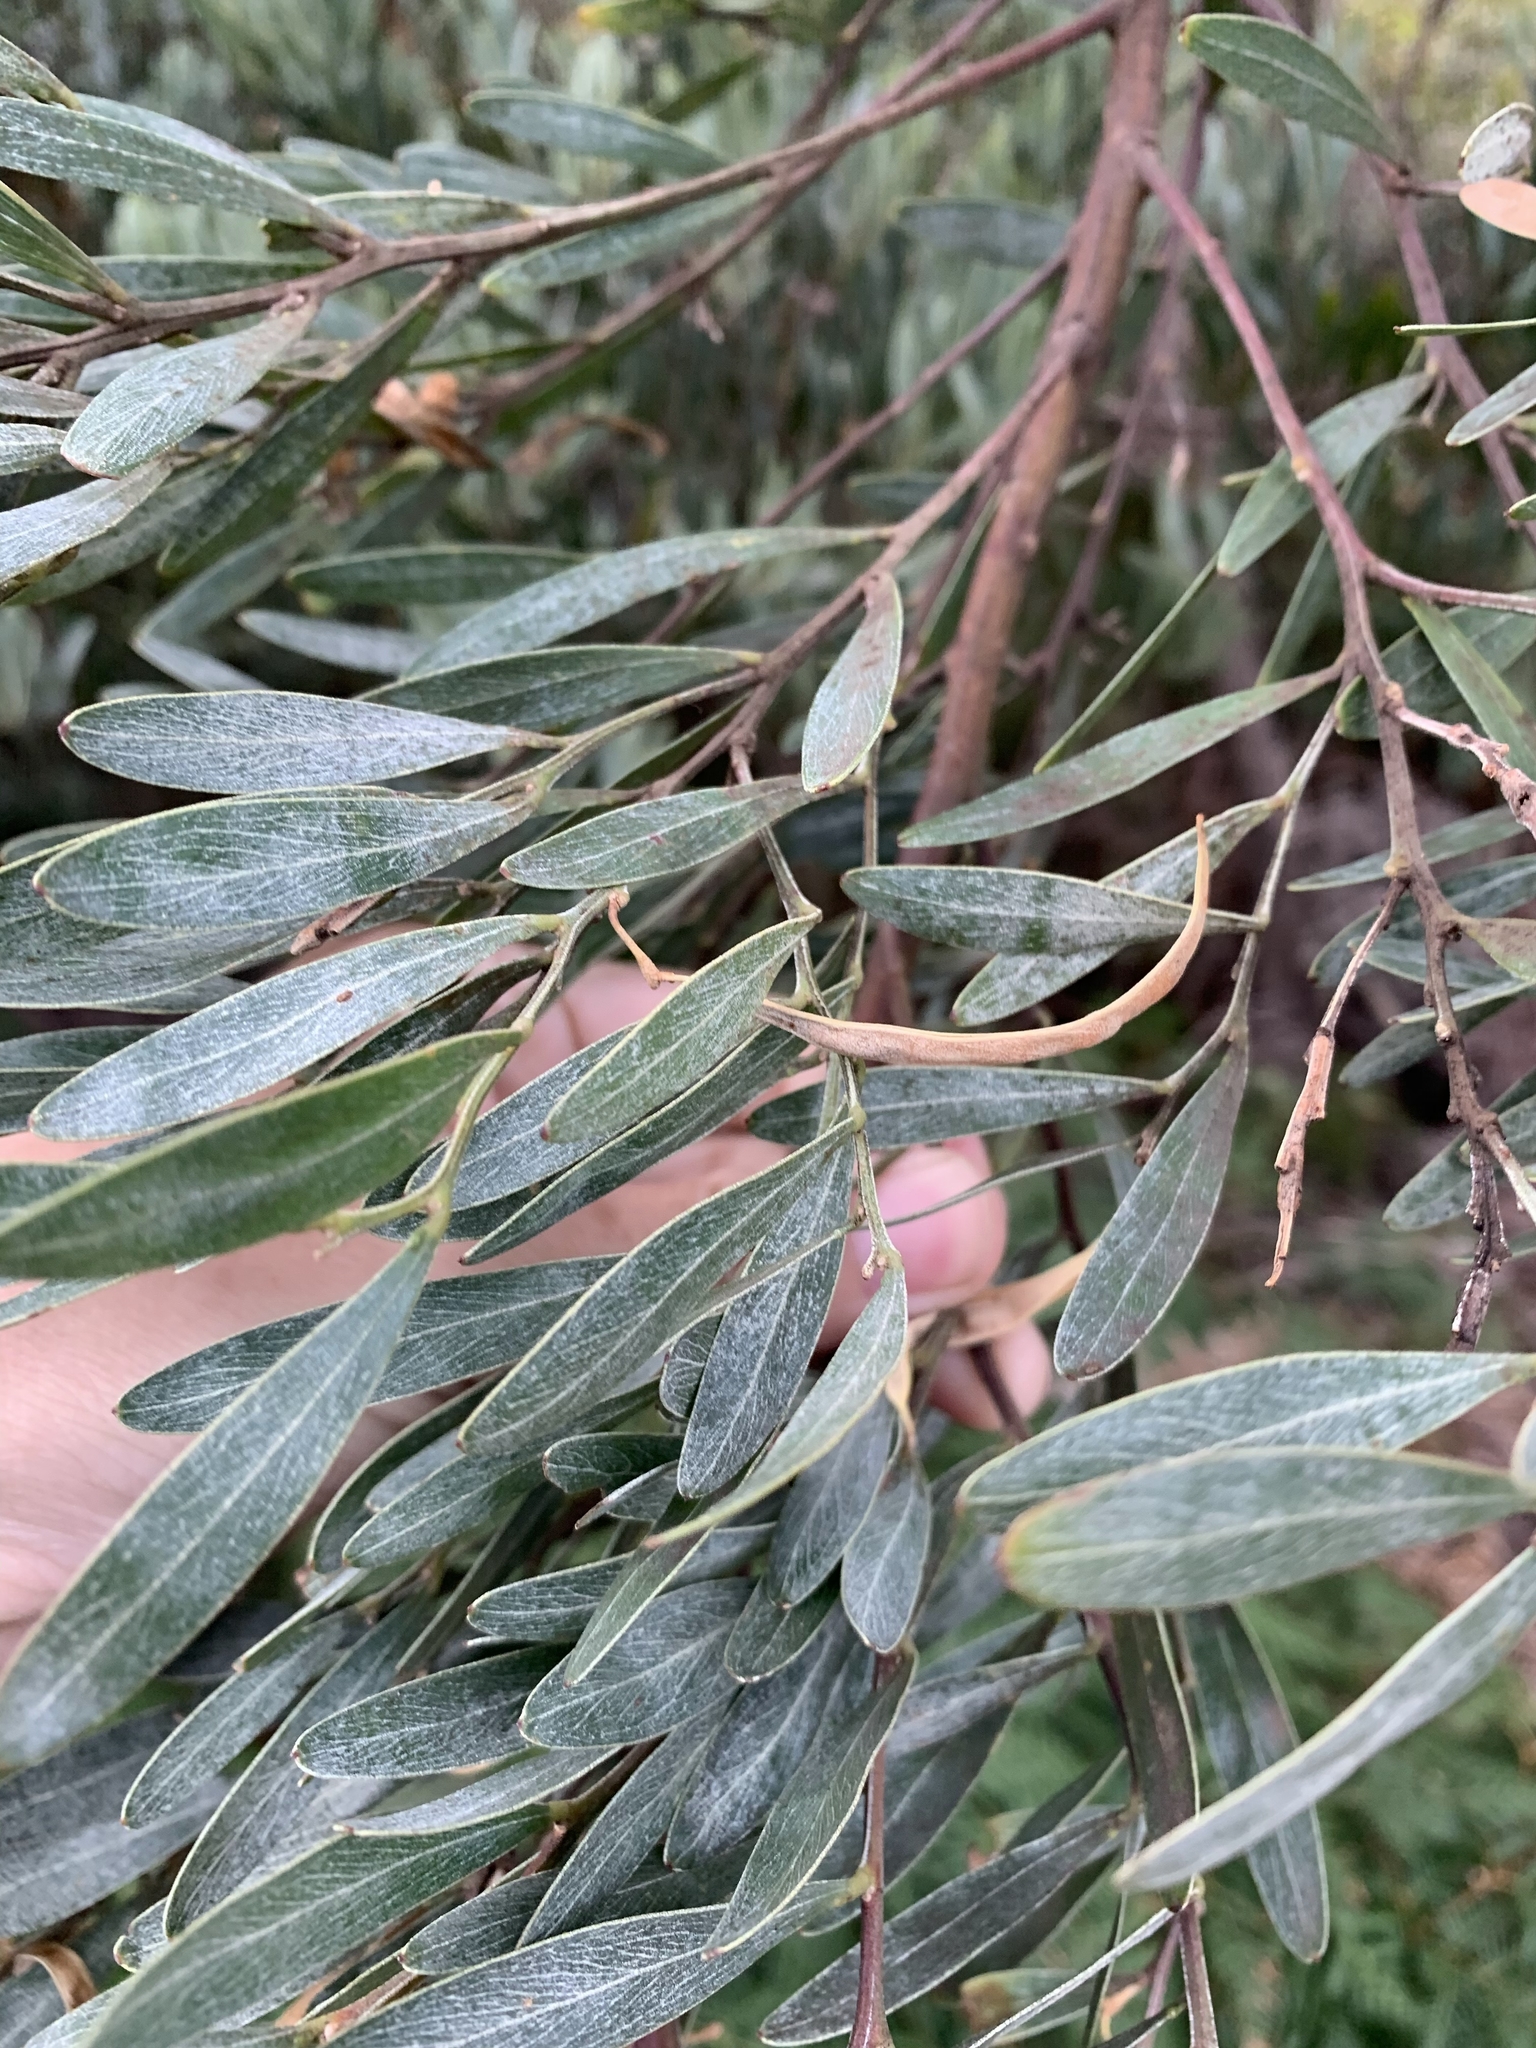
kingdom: Plantae
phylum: Tracheophyta
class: Magnoliopsida
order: Fabales
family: Fabaceae
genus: Acacia
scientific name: Acacia stricta
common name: Hop wattle
